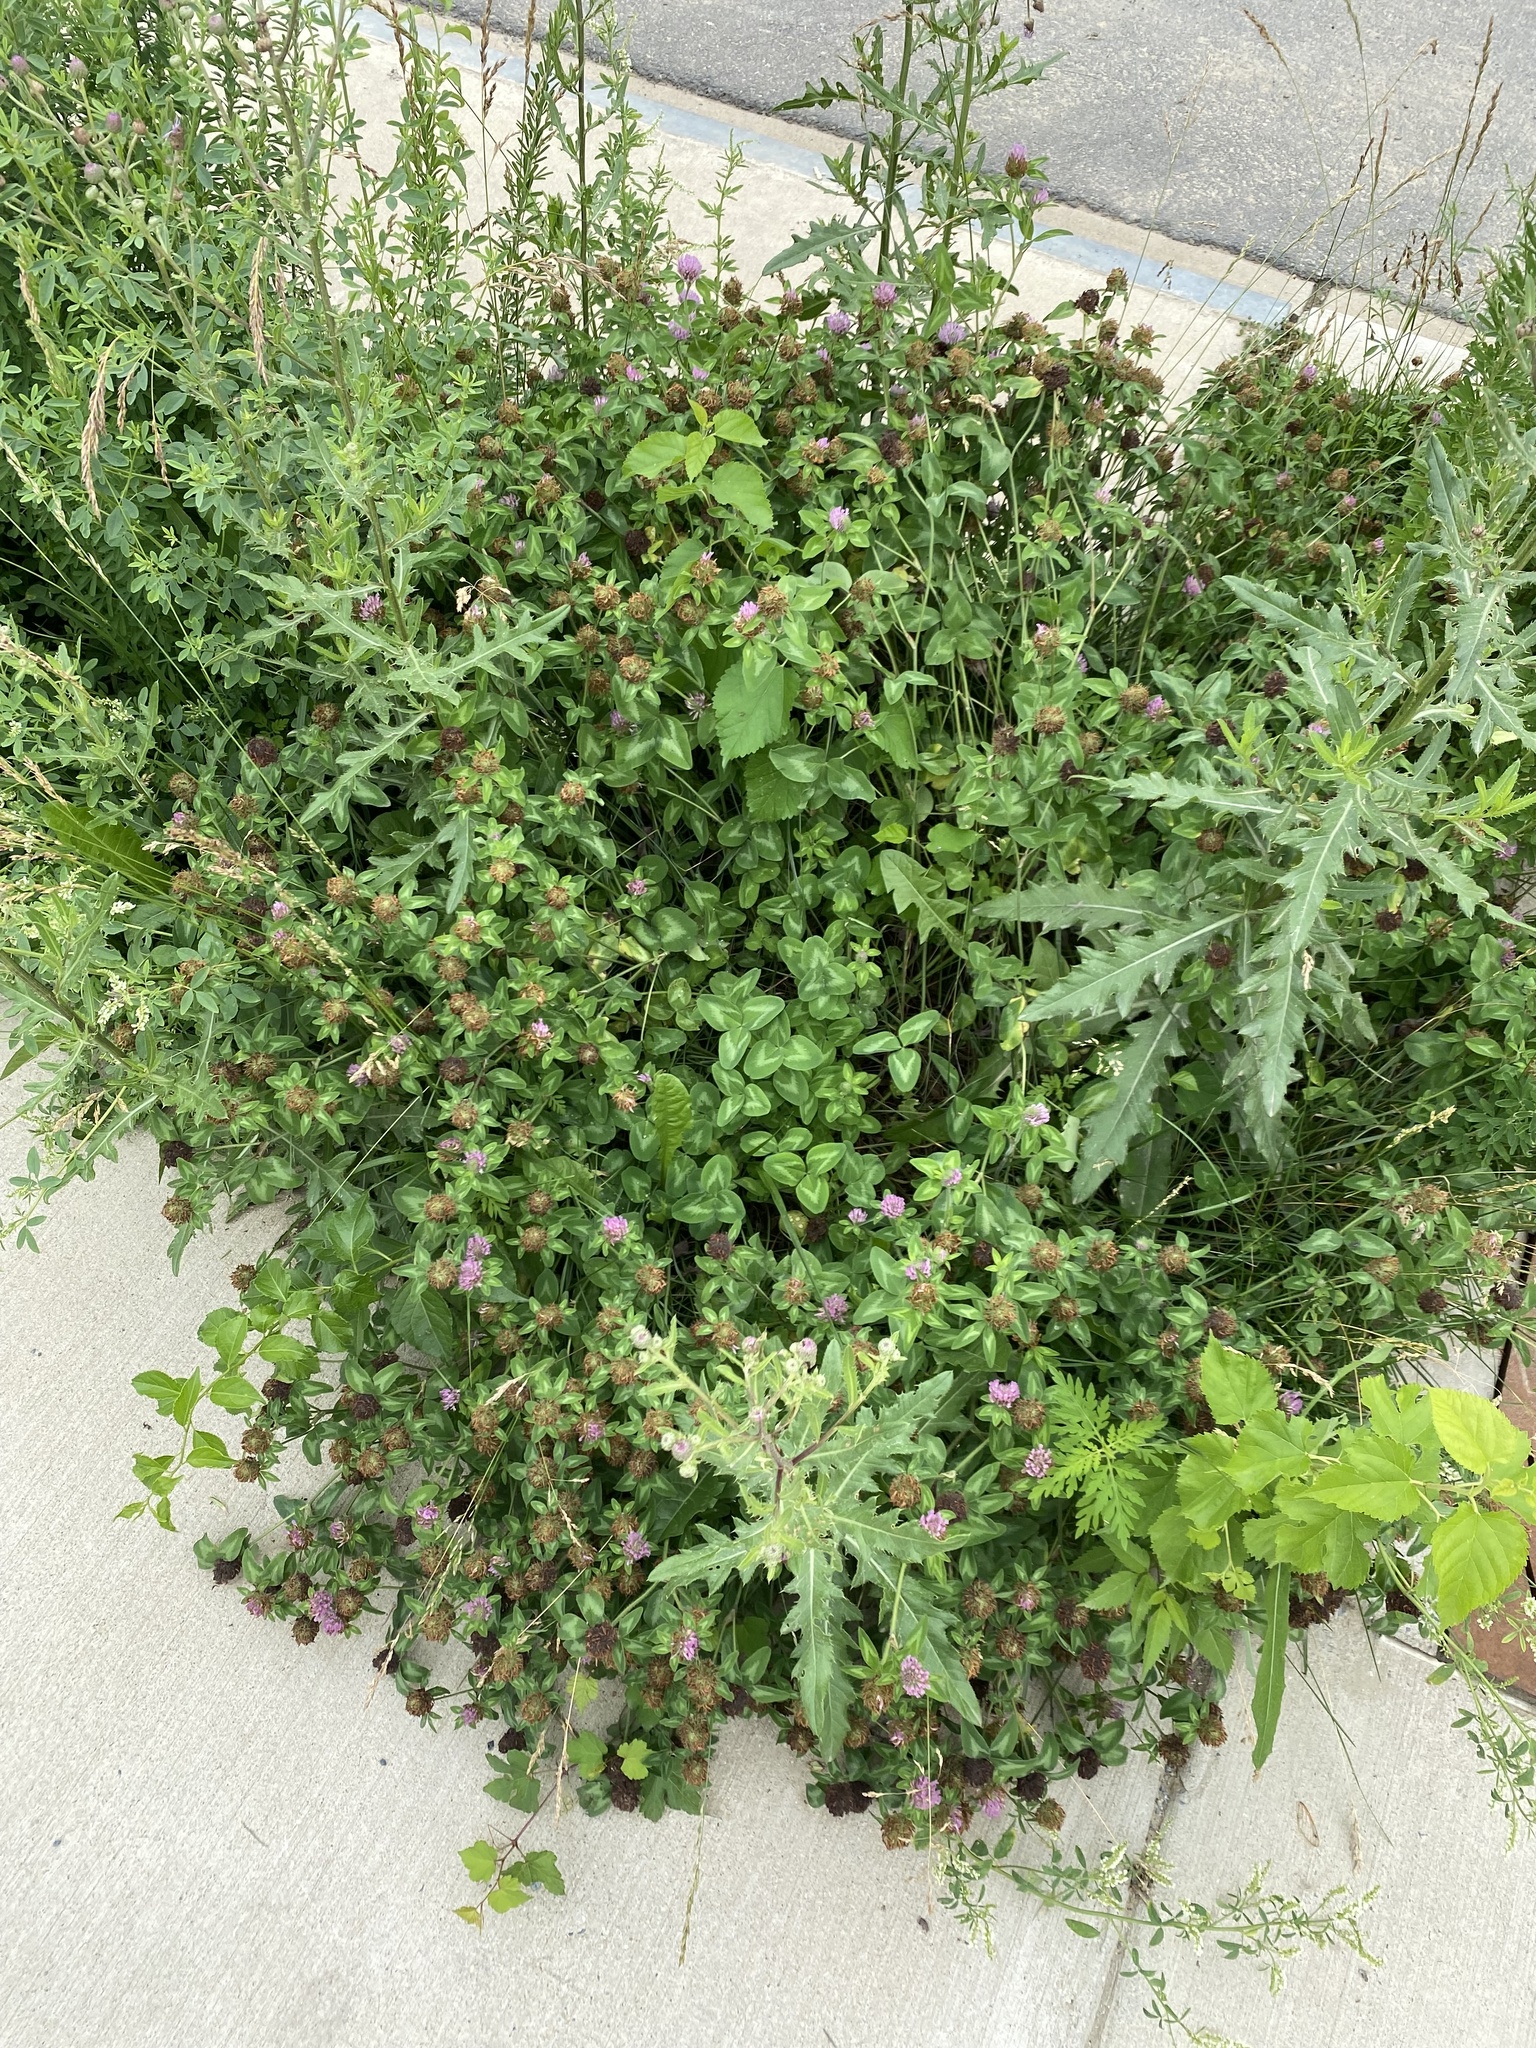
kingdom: Plantae
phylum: Tracheophyta
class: Magnoliopsida
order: Fabales
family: Fabaceae
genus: Trifolium
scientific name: Trifolium pratense
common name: Red clover
